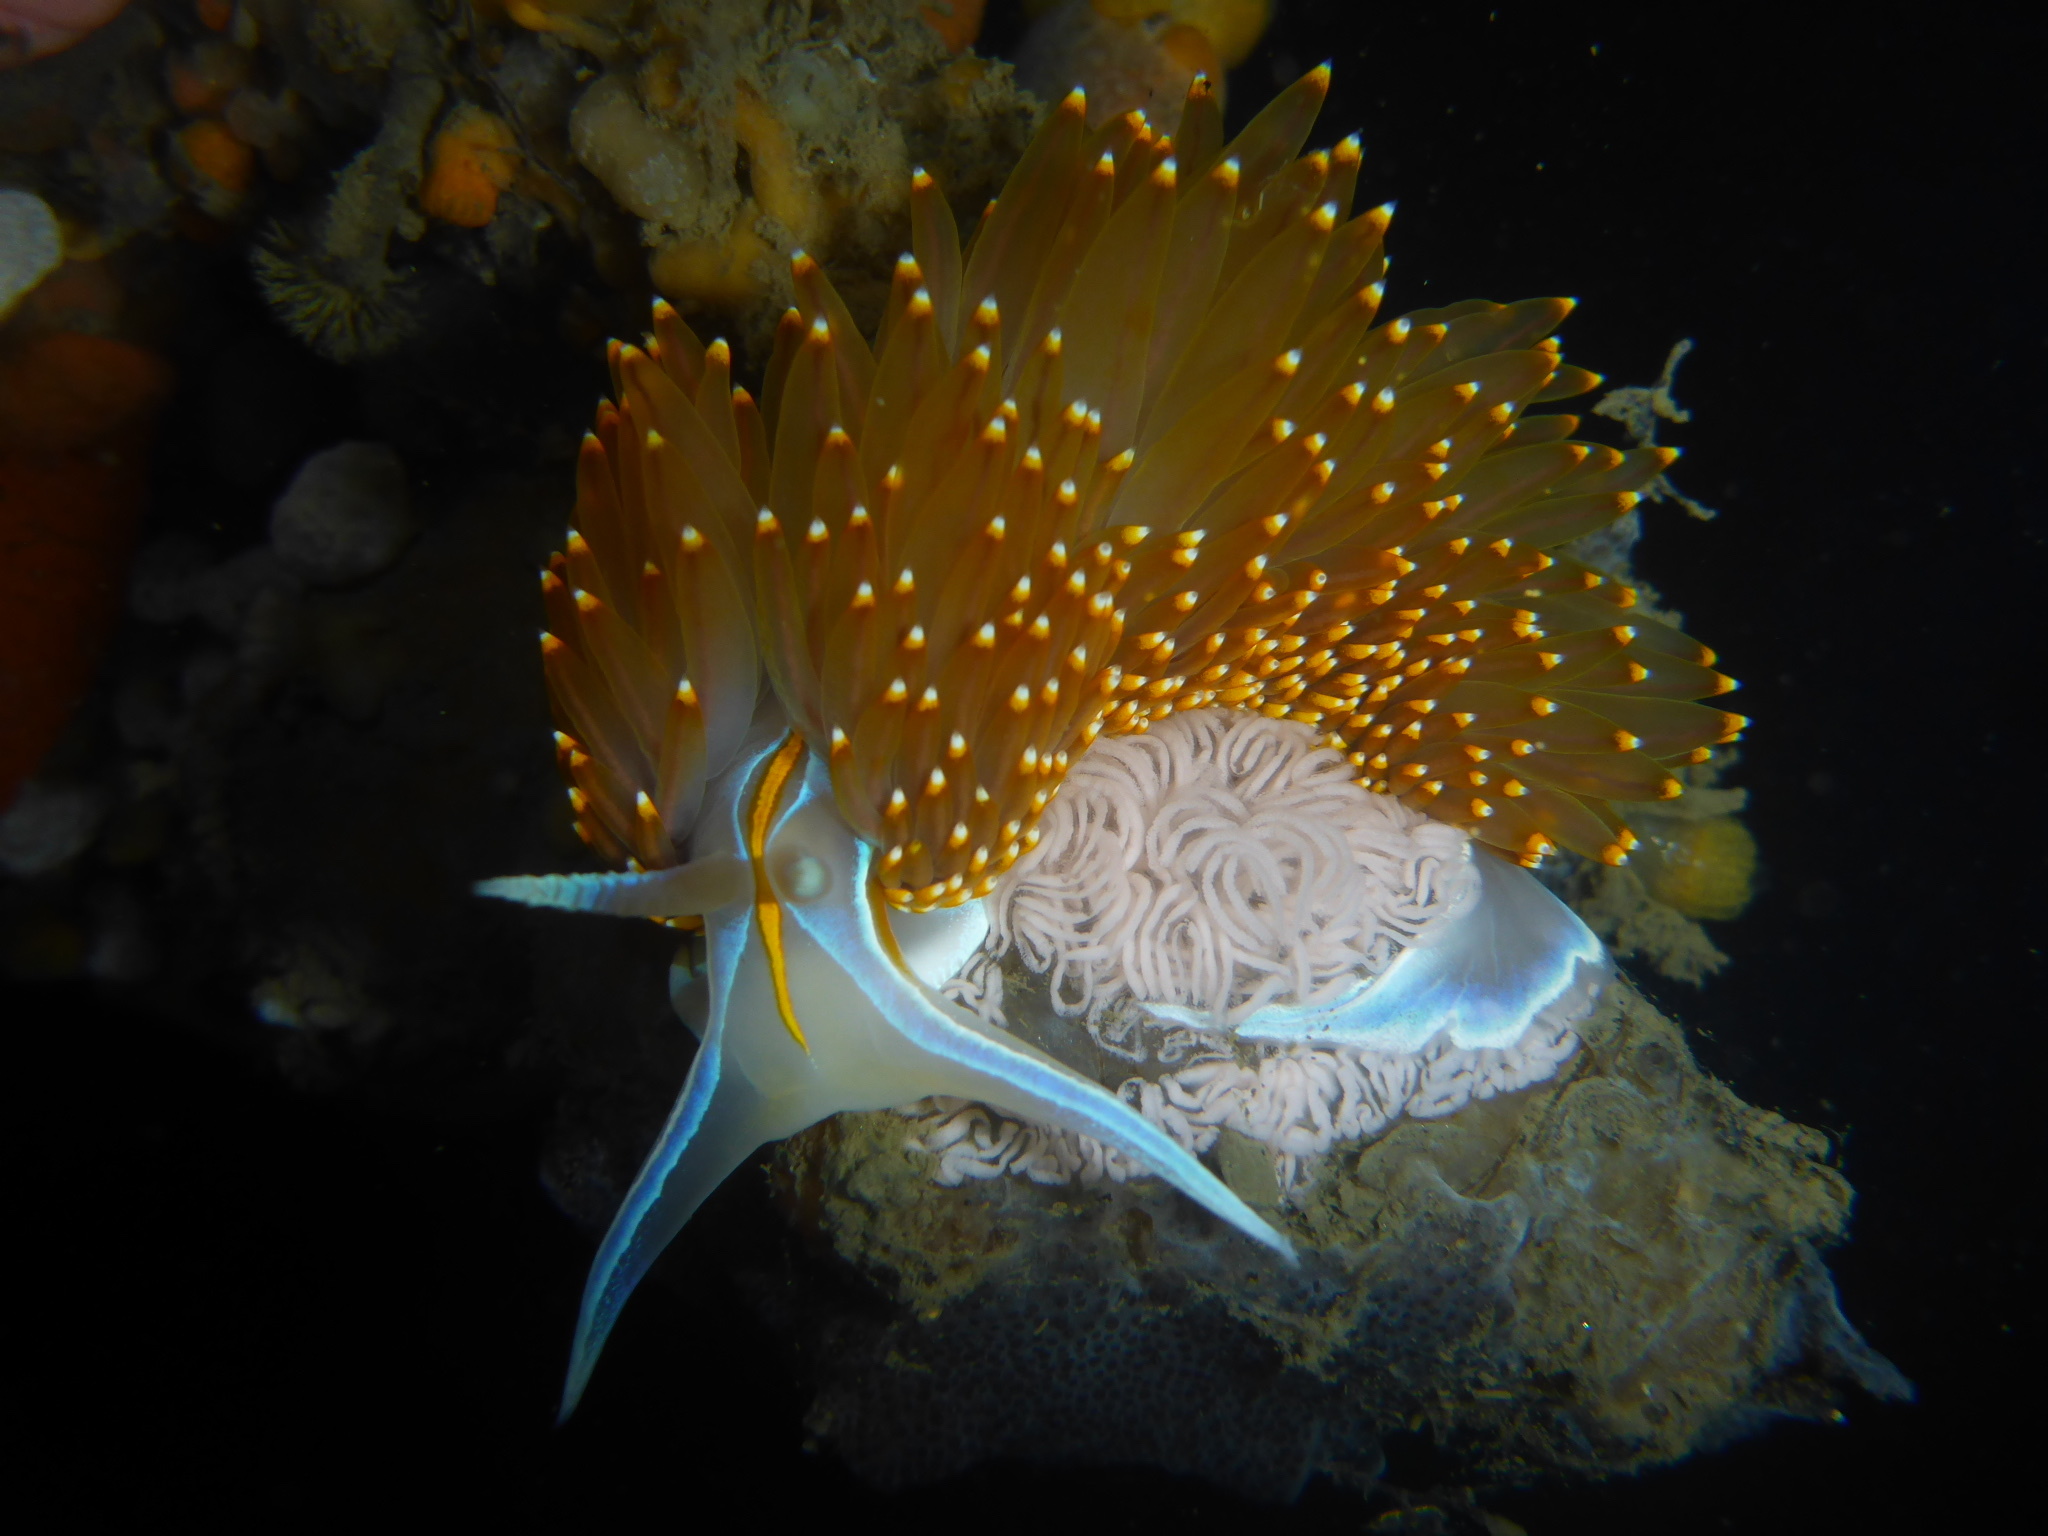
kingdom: Animalia
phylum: Mollusca
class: Gastropoda
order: Nudibranchia
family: Myrrhinidae
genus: Hermissenda
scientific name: Hermissenda opalescens
